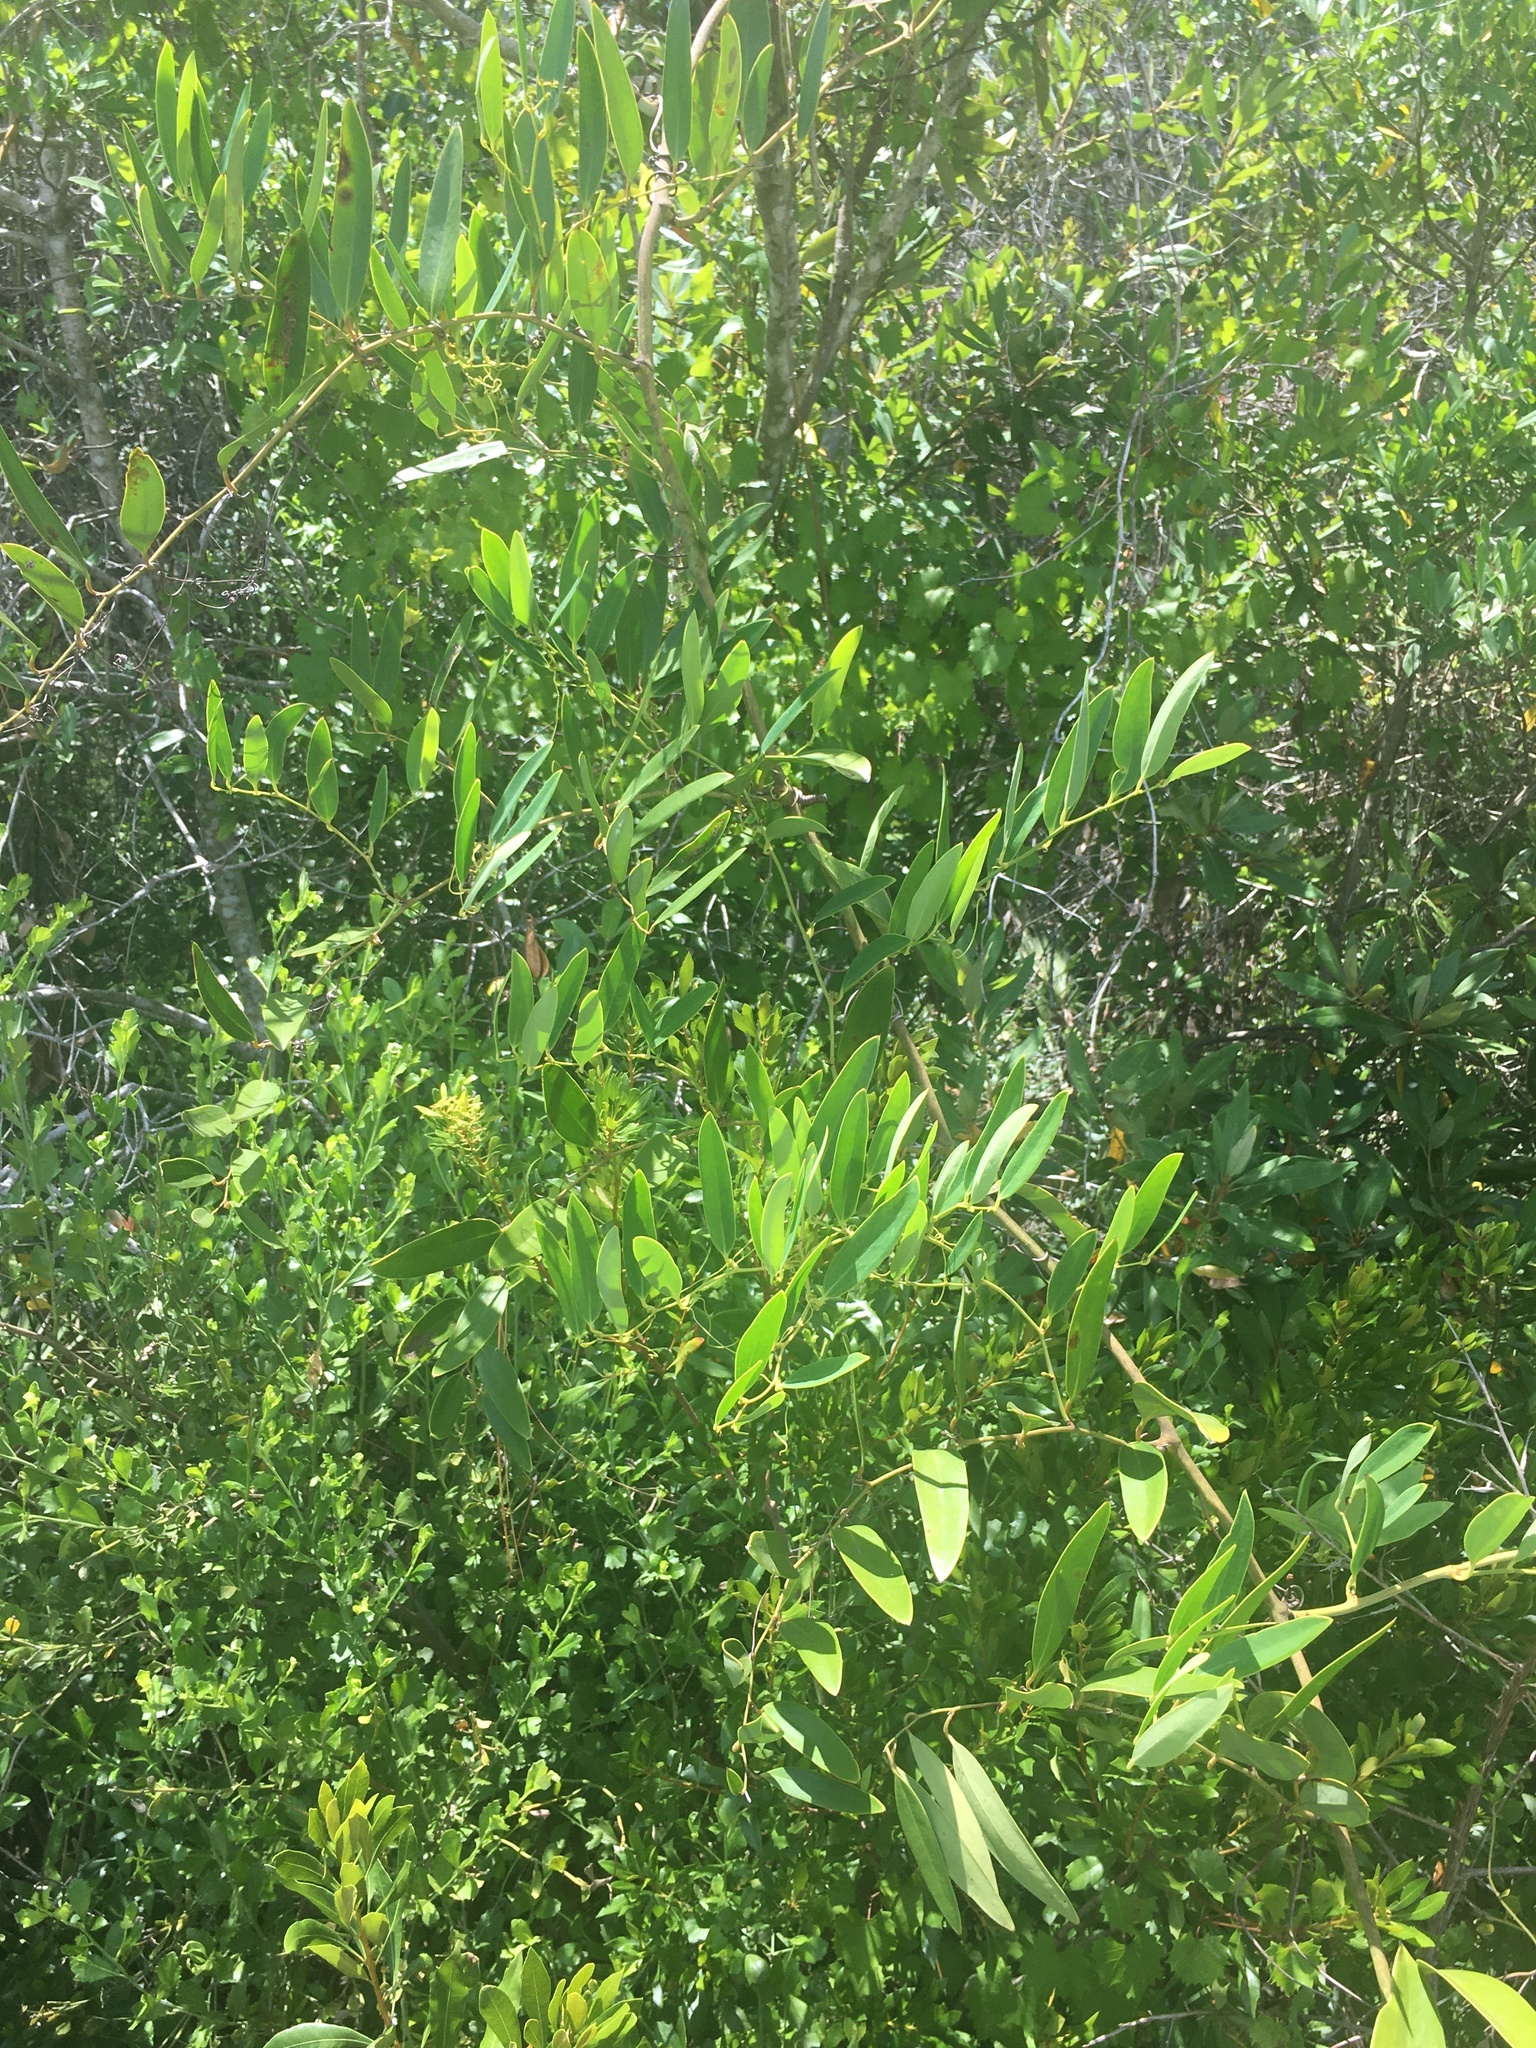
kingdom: Plantae
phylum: Tracheophyta
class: Liliopsida
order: Liliales
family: Smilacaceae
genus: Smilax
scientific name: Smilax laurifolia
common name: Bamboovine
